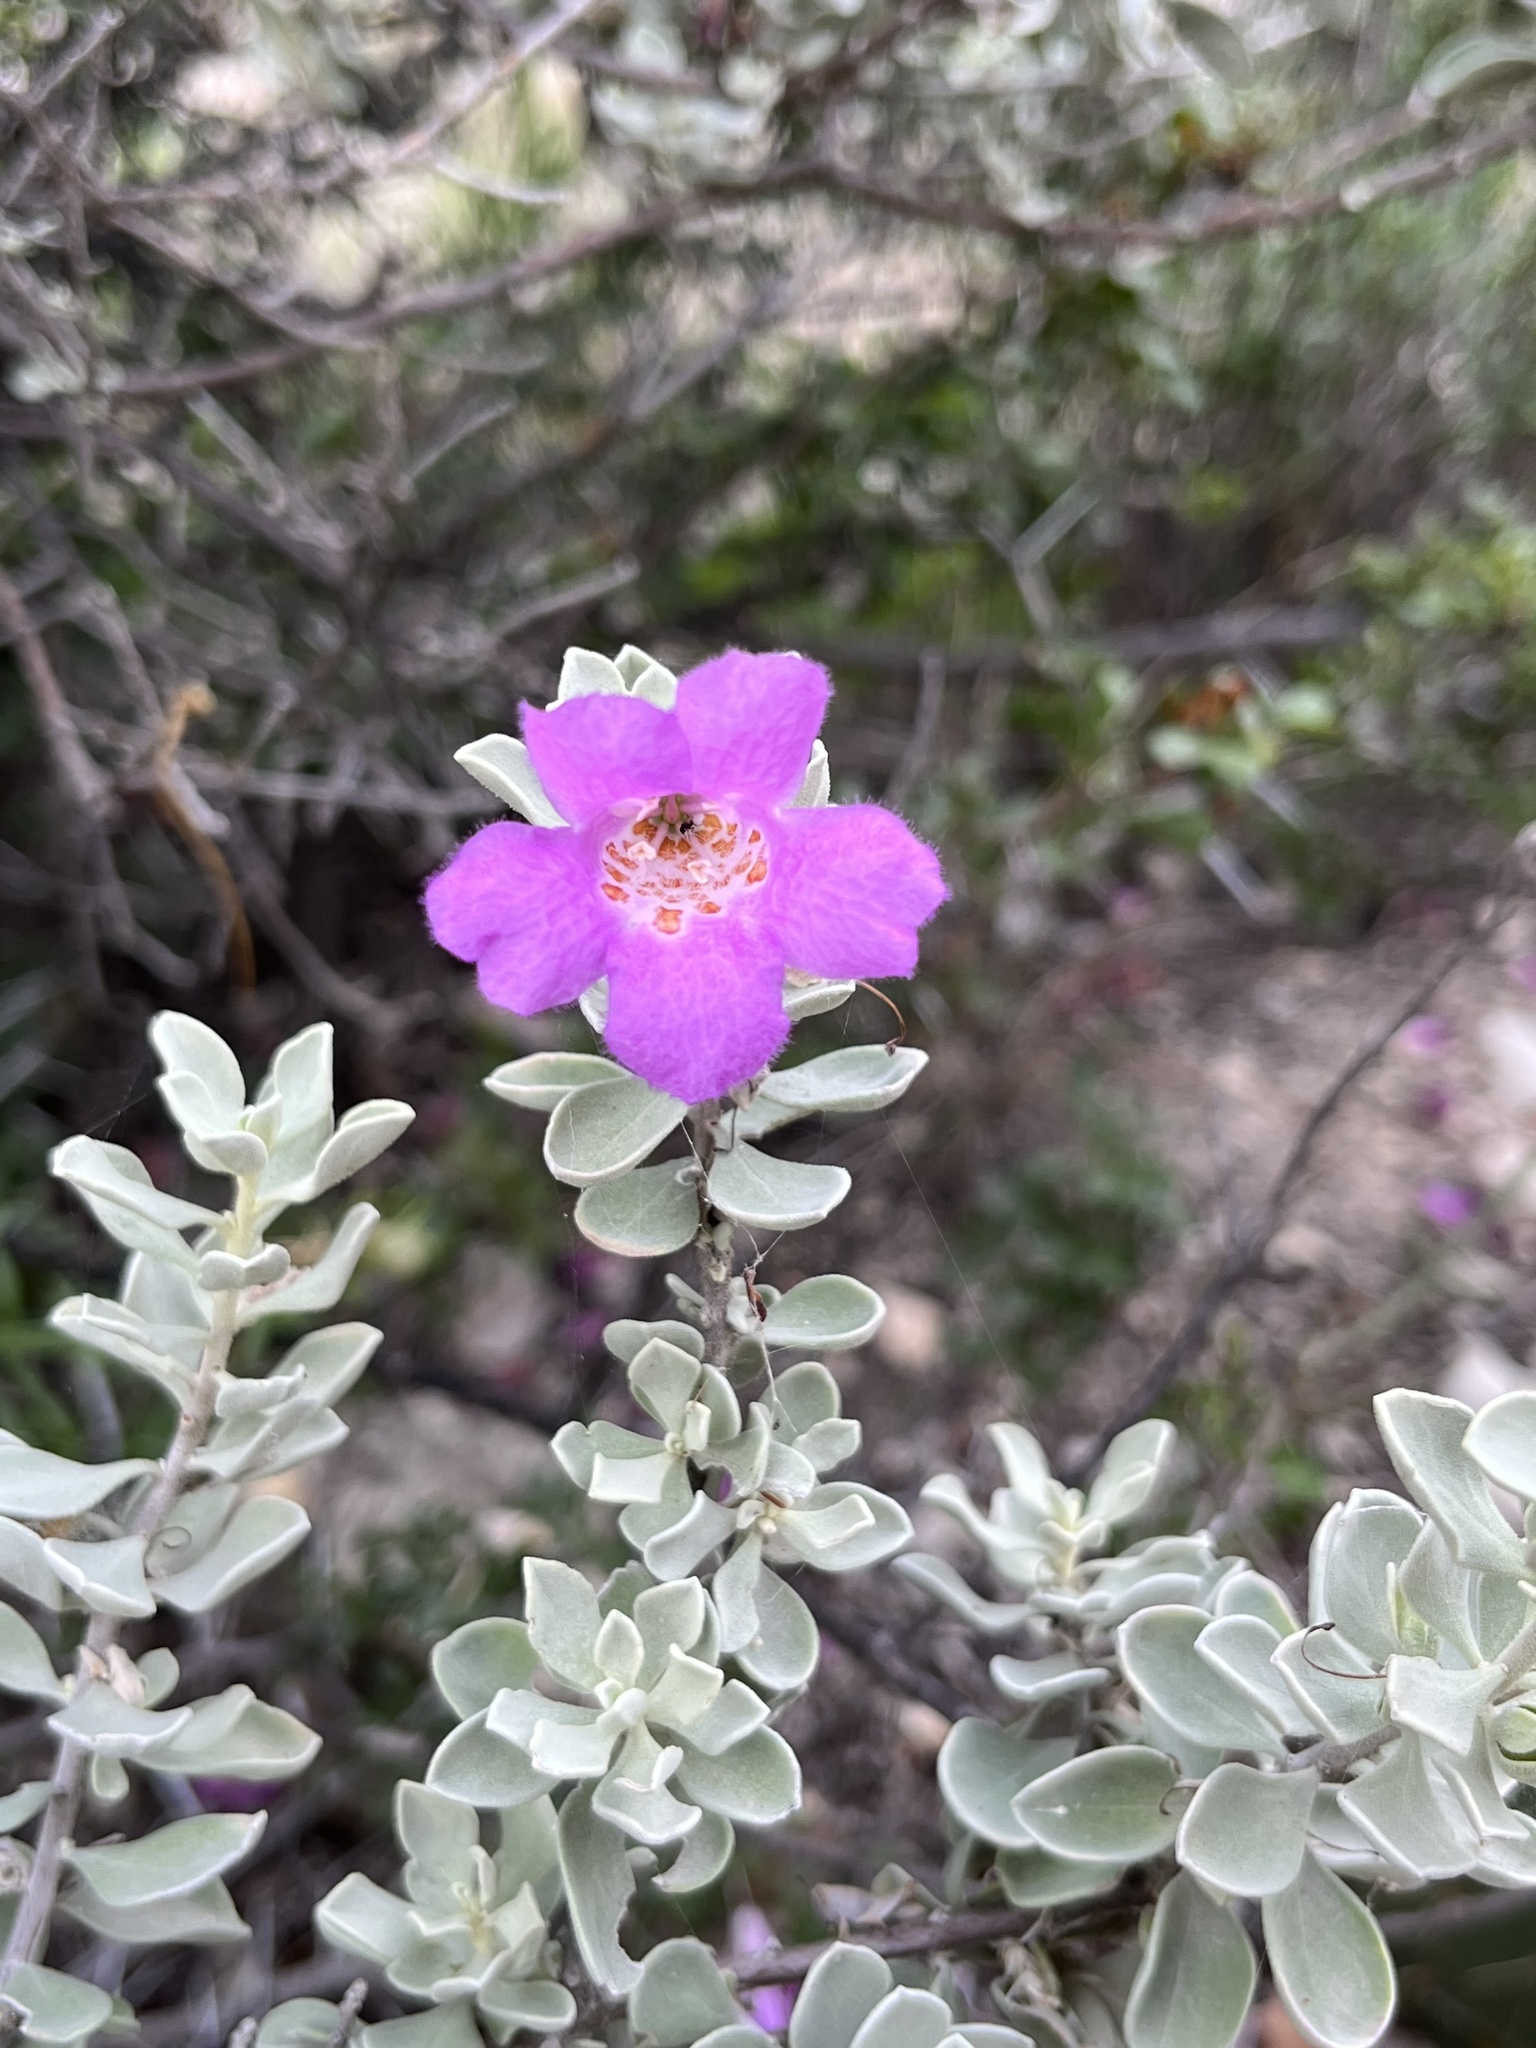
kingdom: Plantae
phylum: Tracheophyta
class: Magnoliopsida
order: Lamiales
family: Scrophulariaceae
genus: Leucophyllum
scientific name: Leucophyllum frutescens
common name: Texas silverleaf
